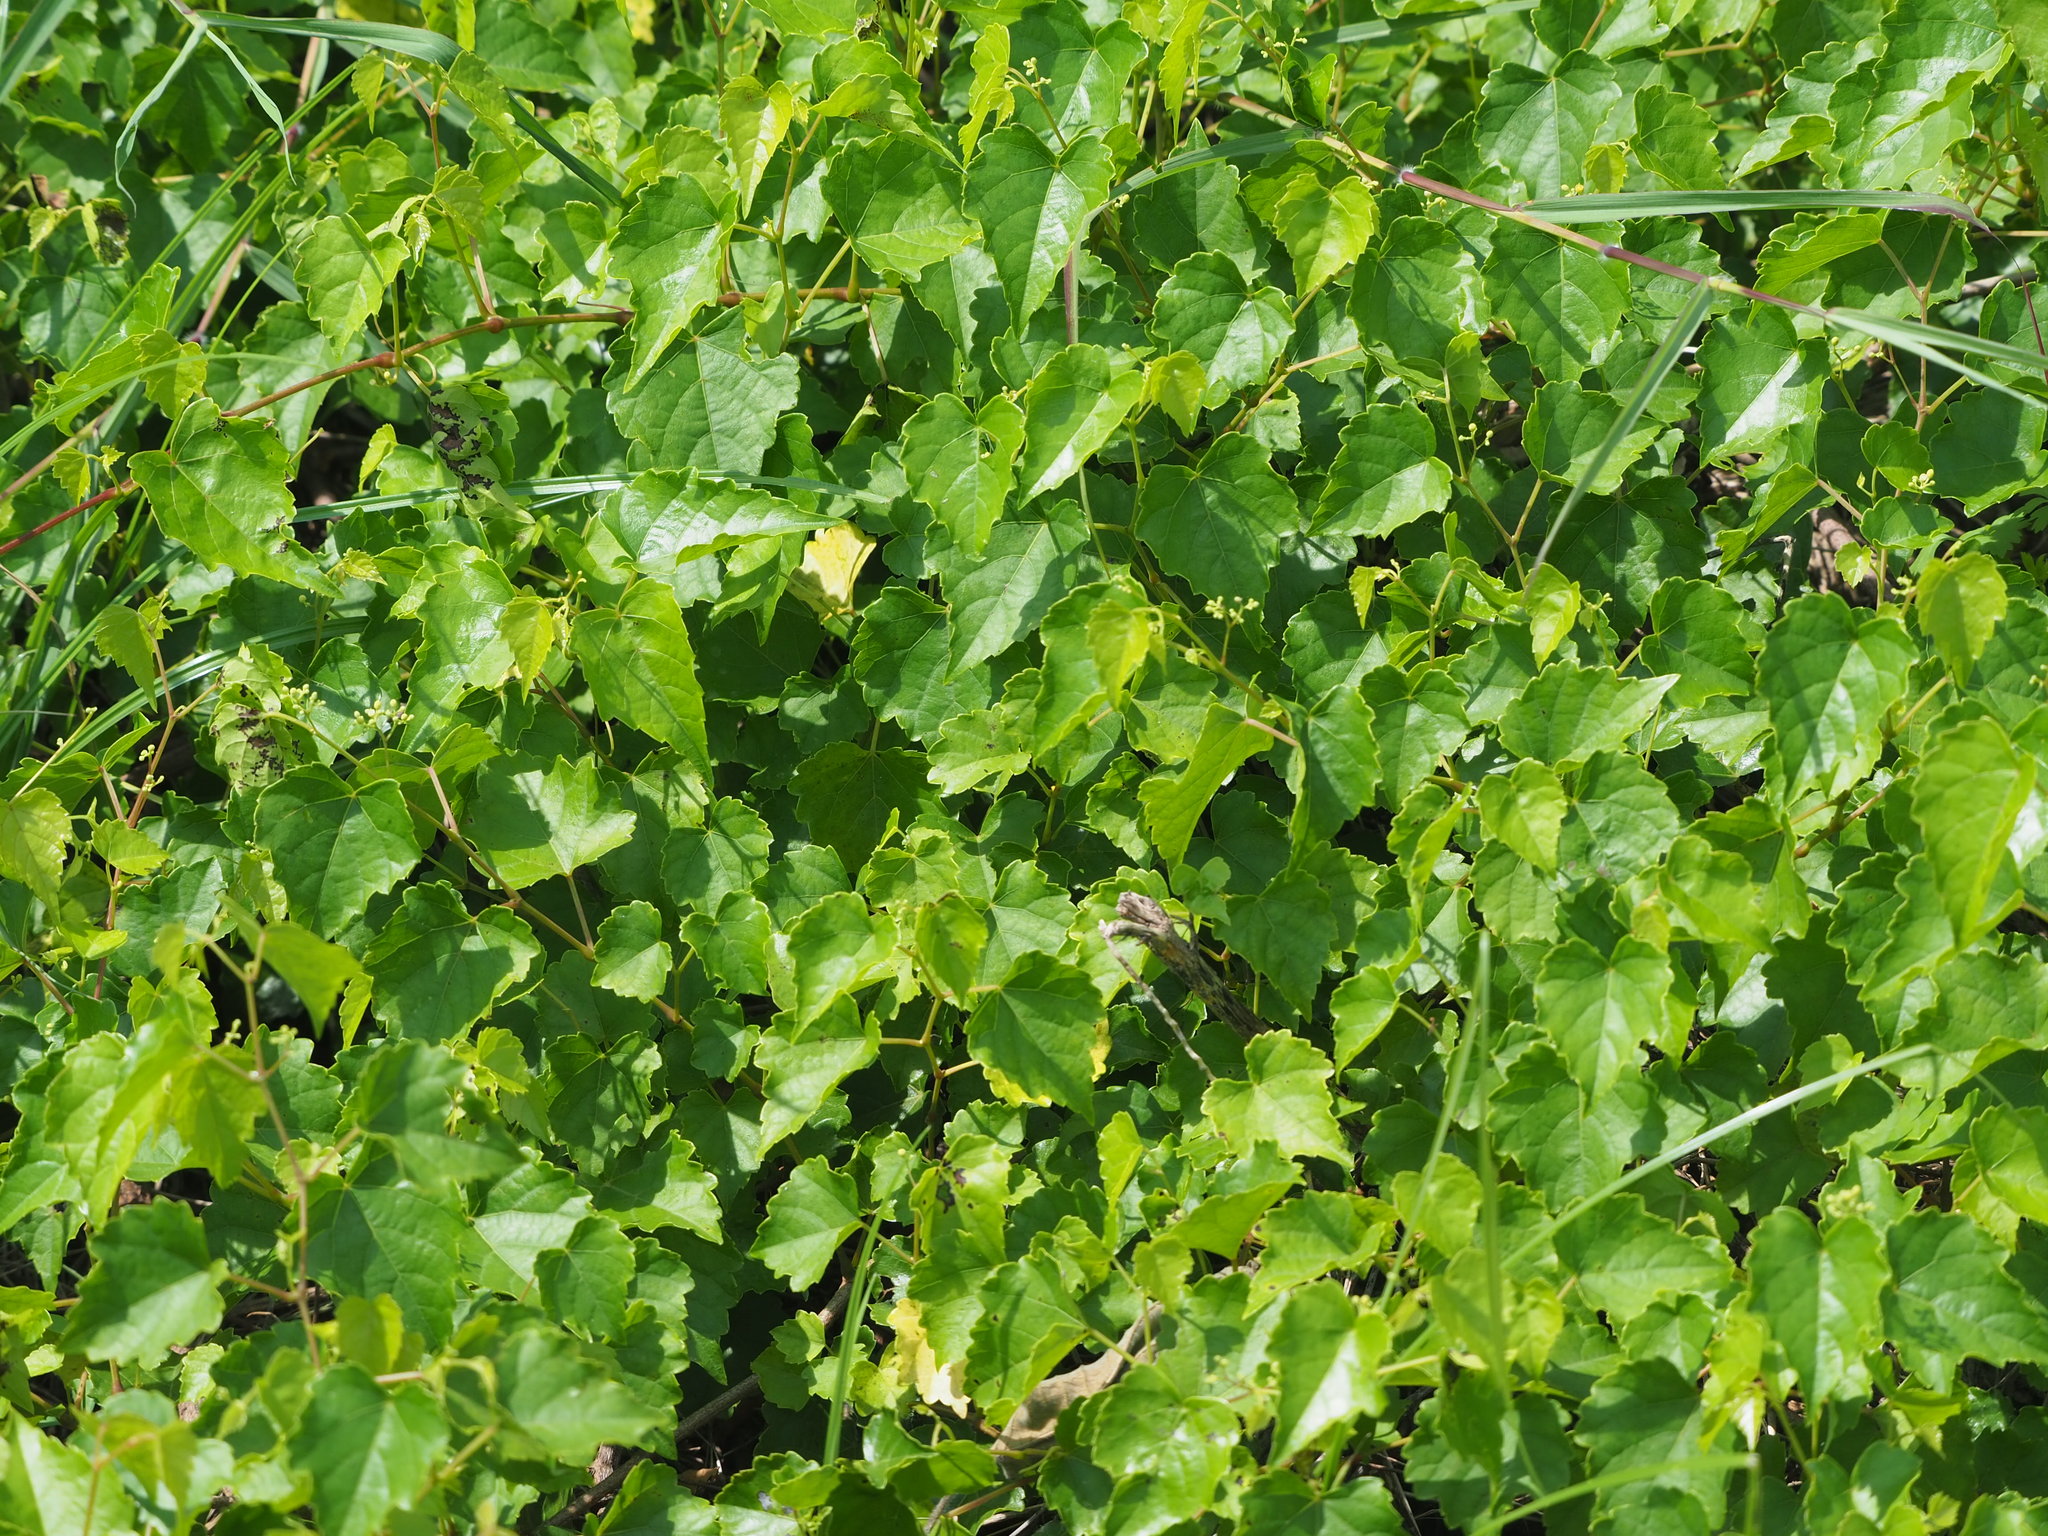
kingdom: Plantae
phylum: Tracheophyta
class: Magnoliopsida
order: Vitales
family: Vitaceae
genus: Ampelopsis
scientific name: Ampelopsis glandulosa
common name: Amur peppervine
